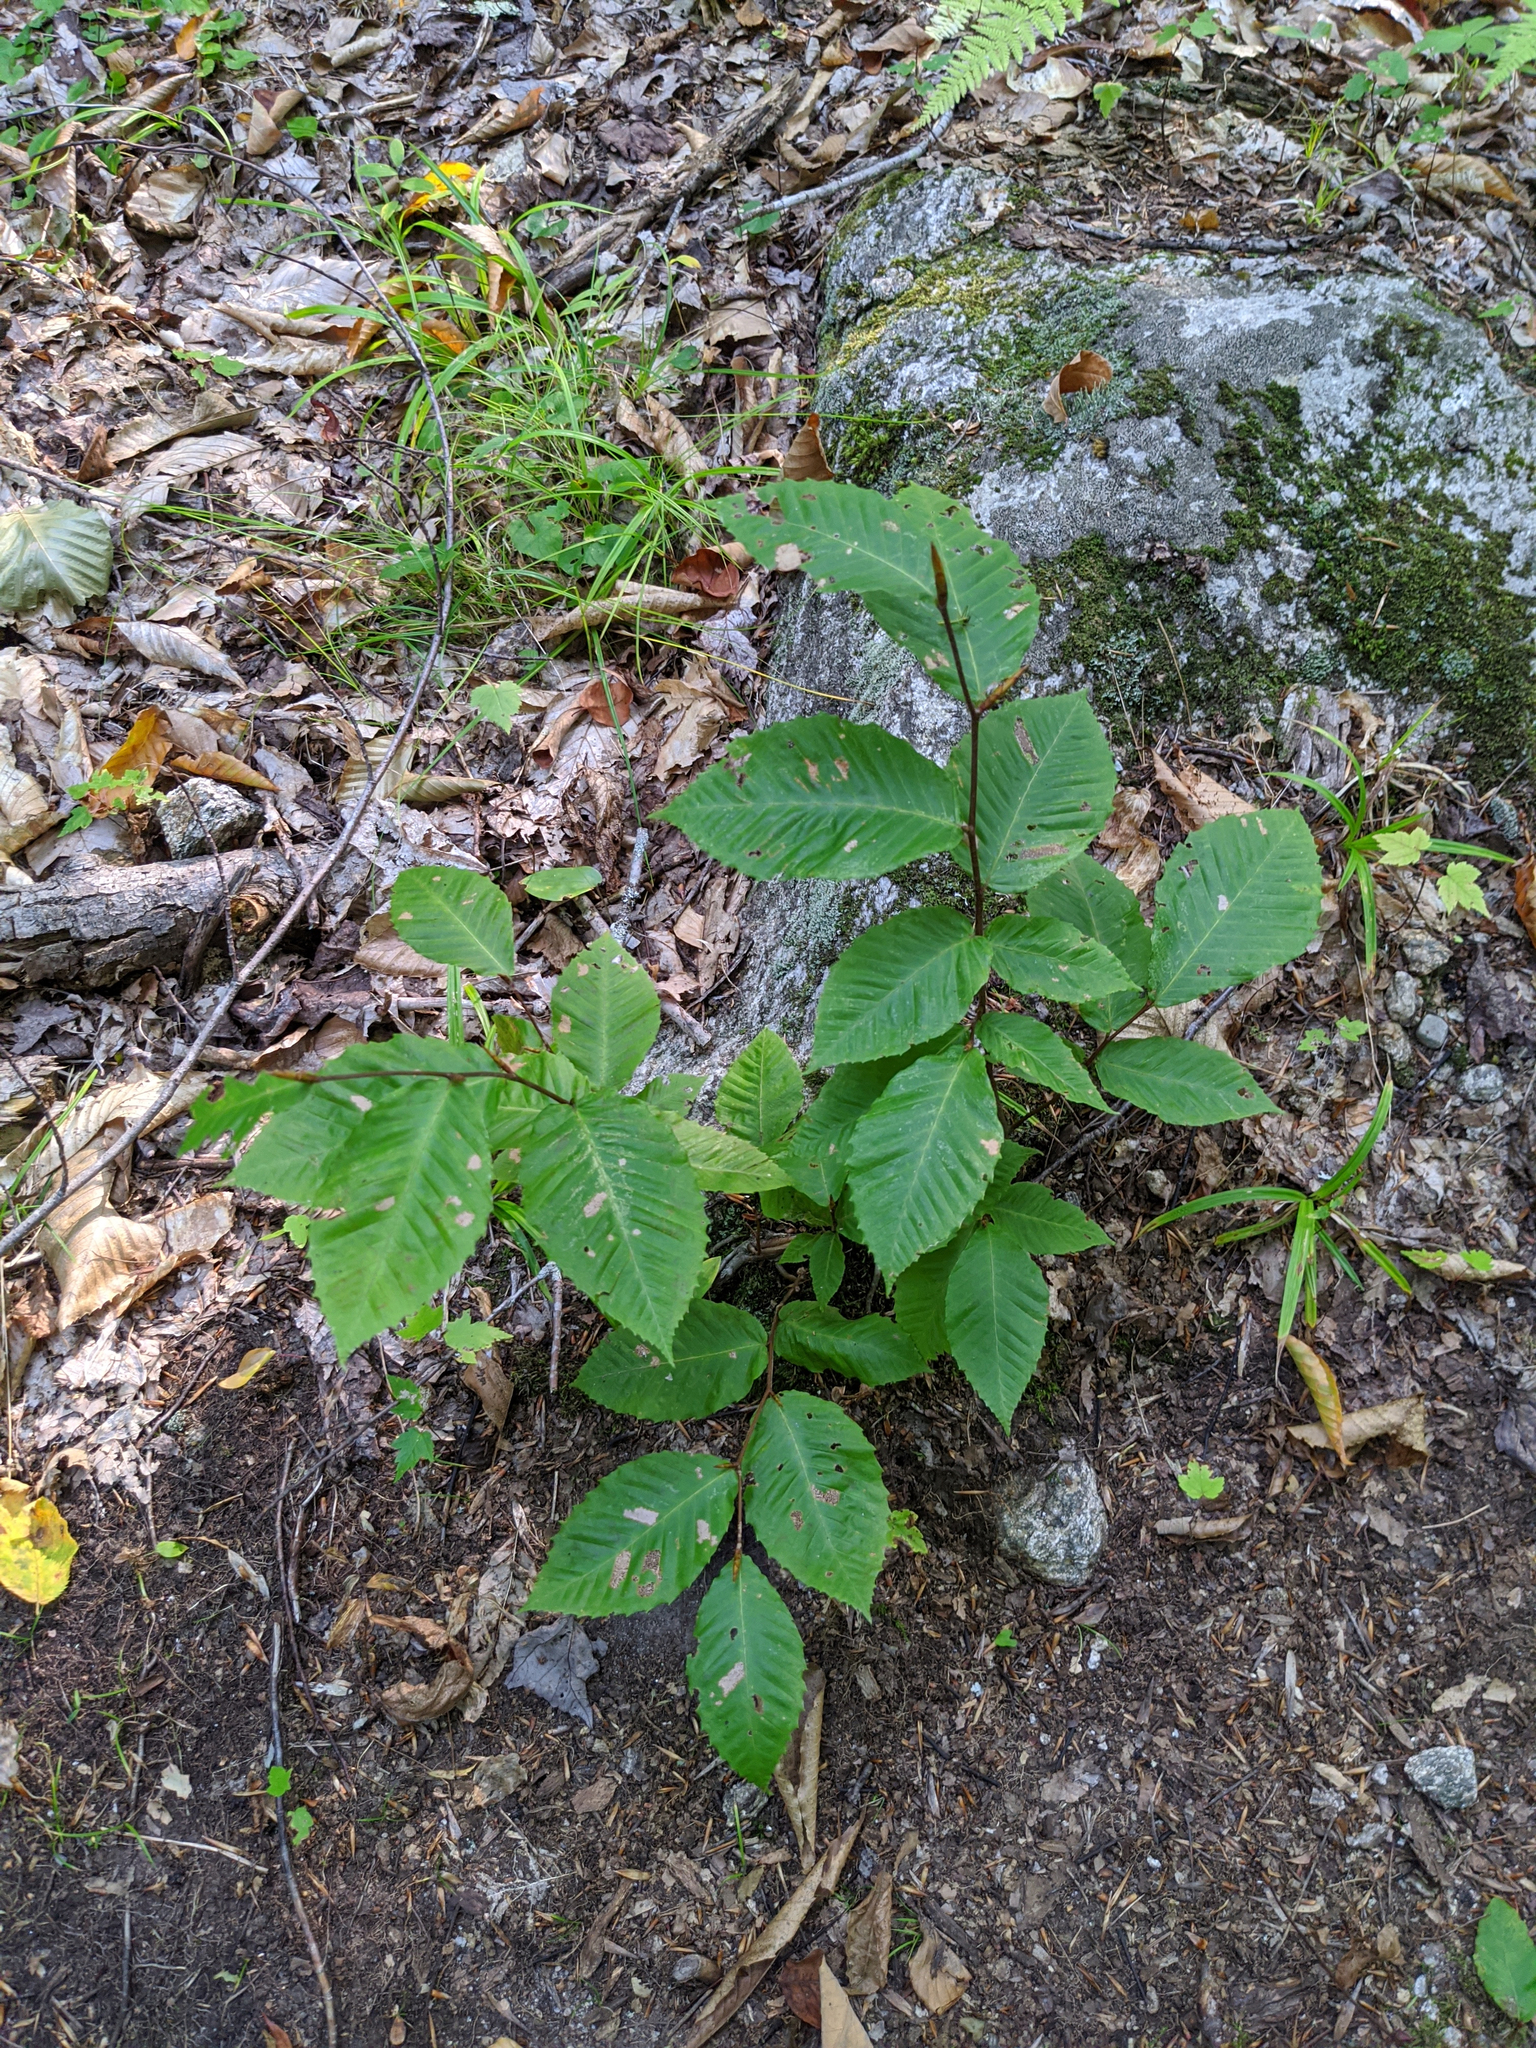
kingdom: Plantae
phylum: Tracheophyta
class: Magnoliopsida
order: Fagales
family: Fagaceae
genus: Fagus
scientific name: Fagus grandifolia
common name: American beech
